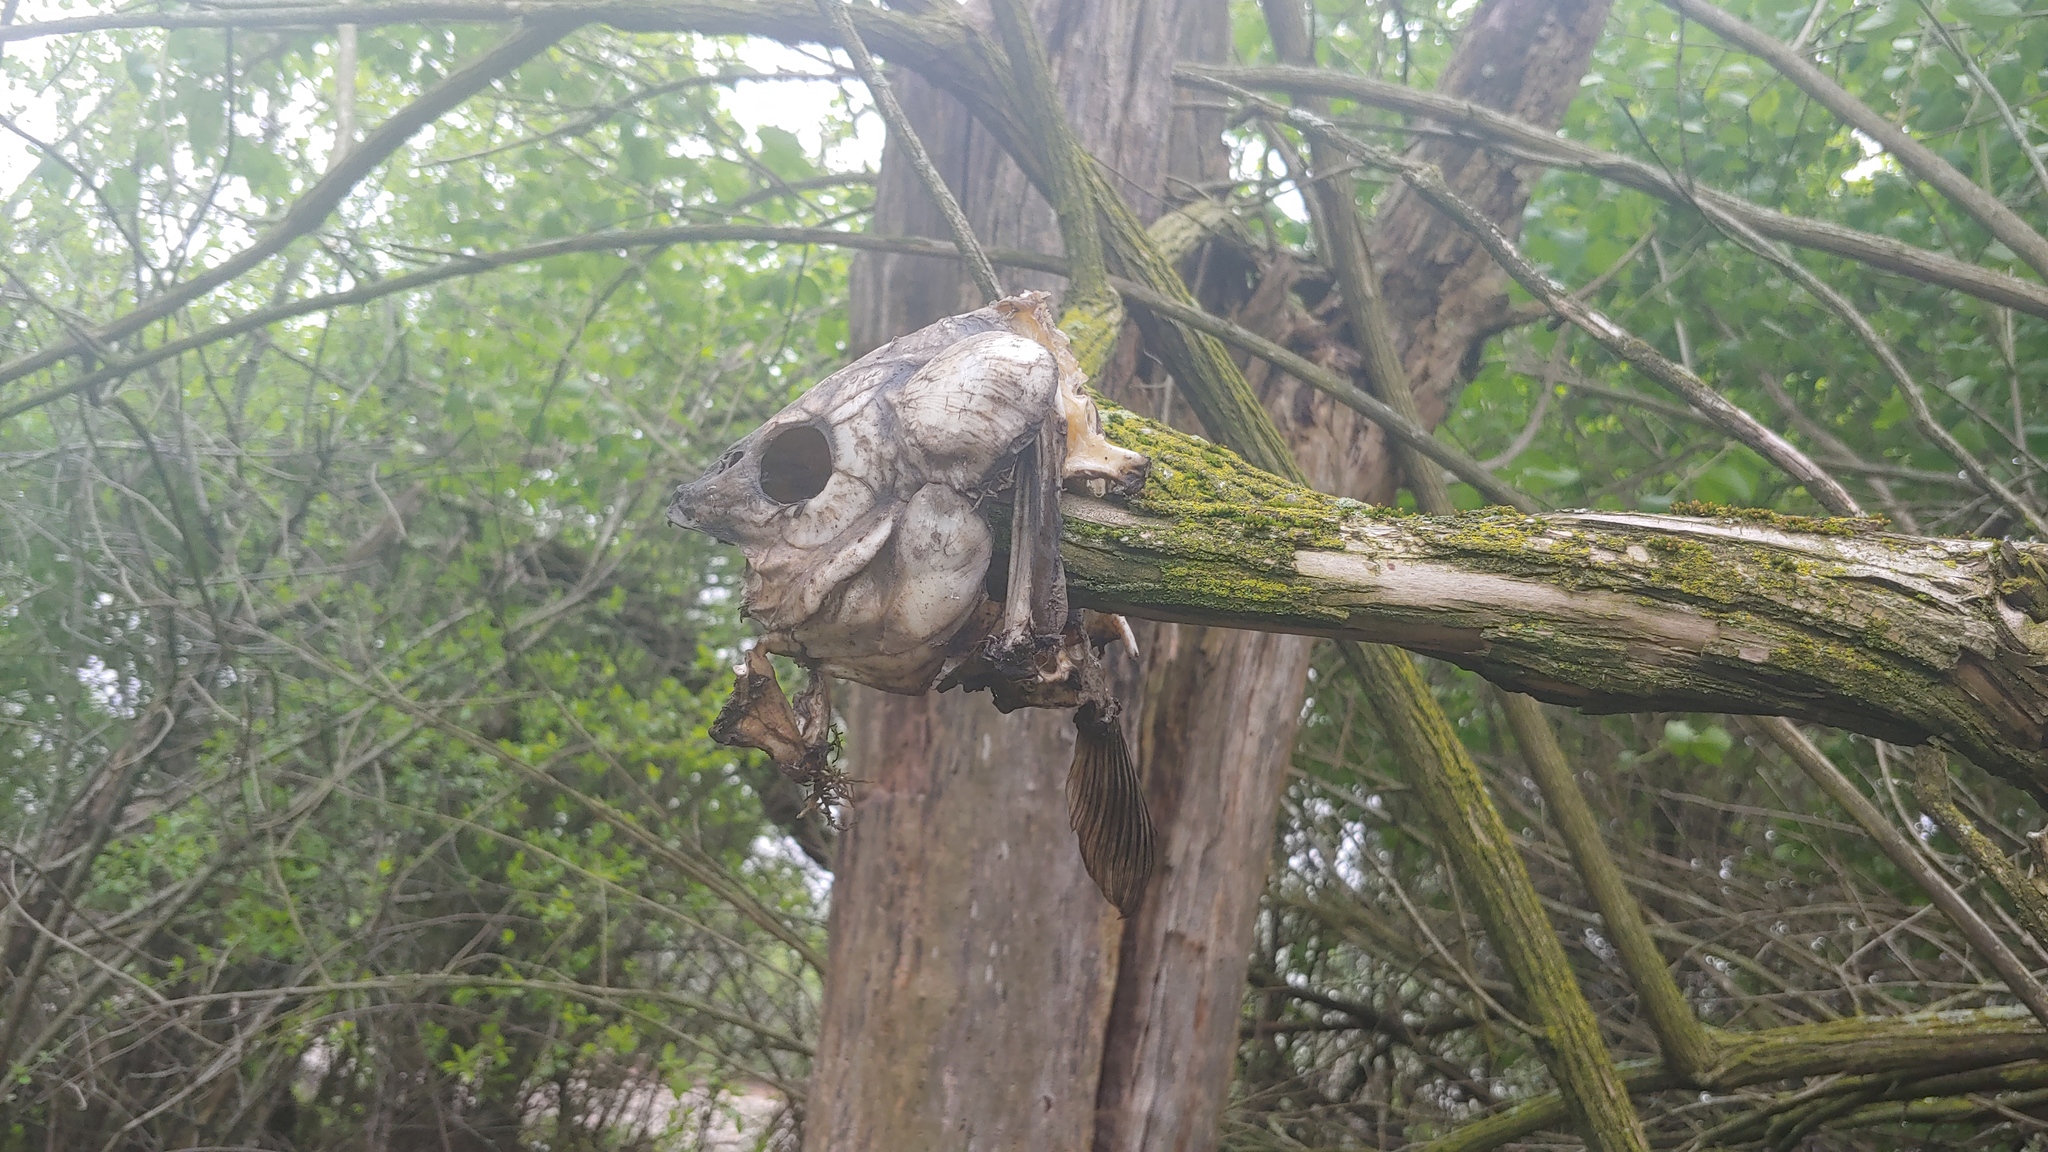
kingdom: Animalia
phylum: Chordata
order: Cypriniformes
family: Cyprinidae
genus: Cyprinus
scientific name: Cyprinus carpio
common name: Common carp
